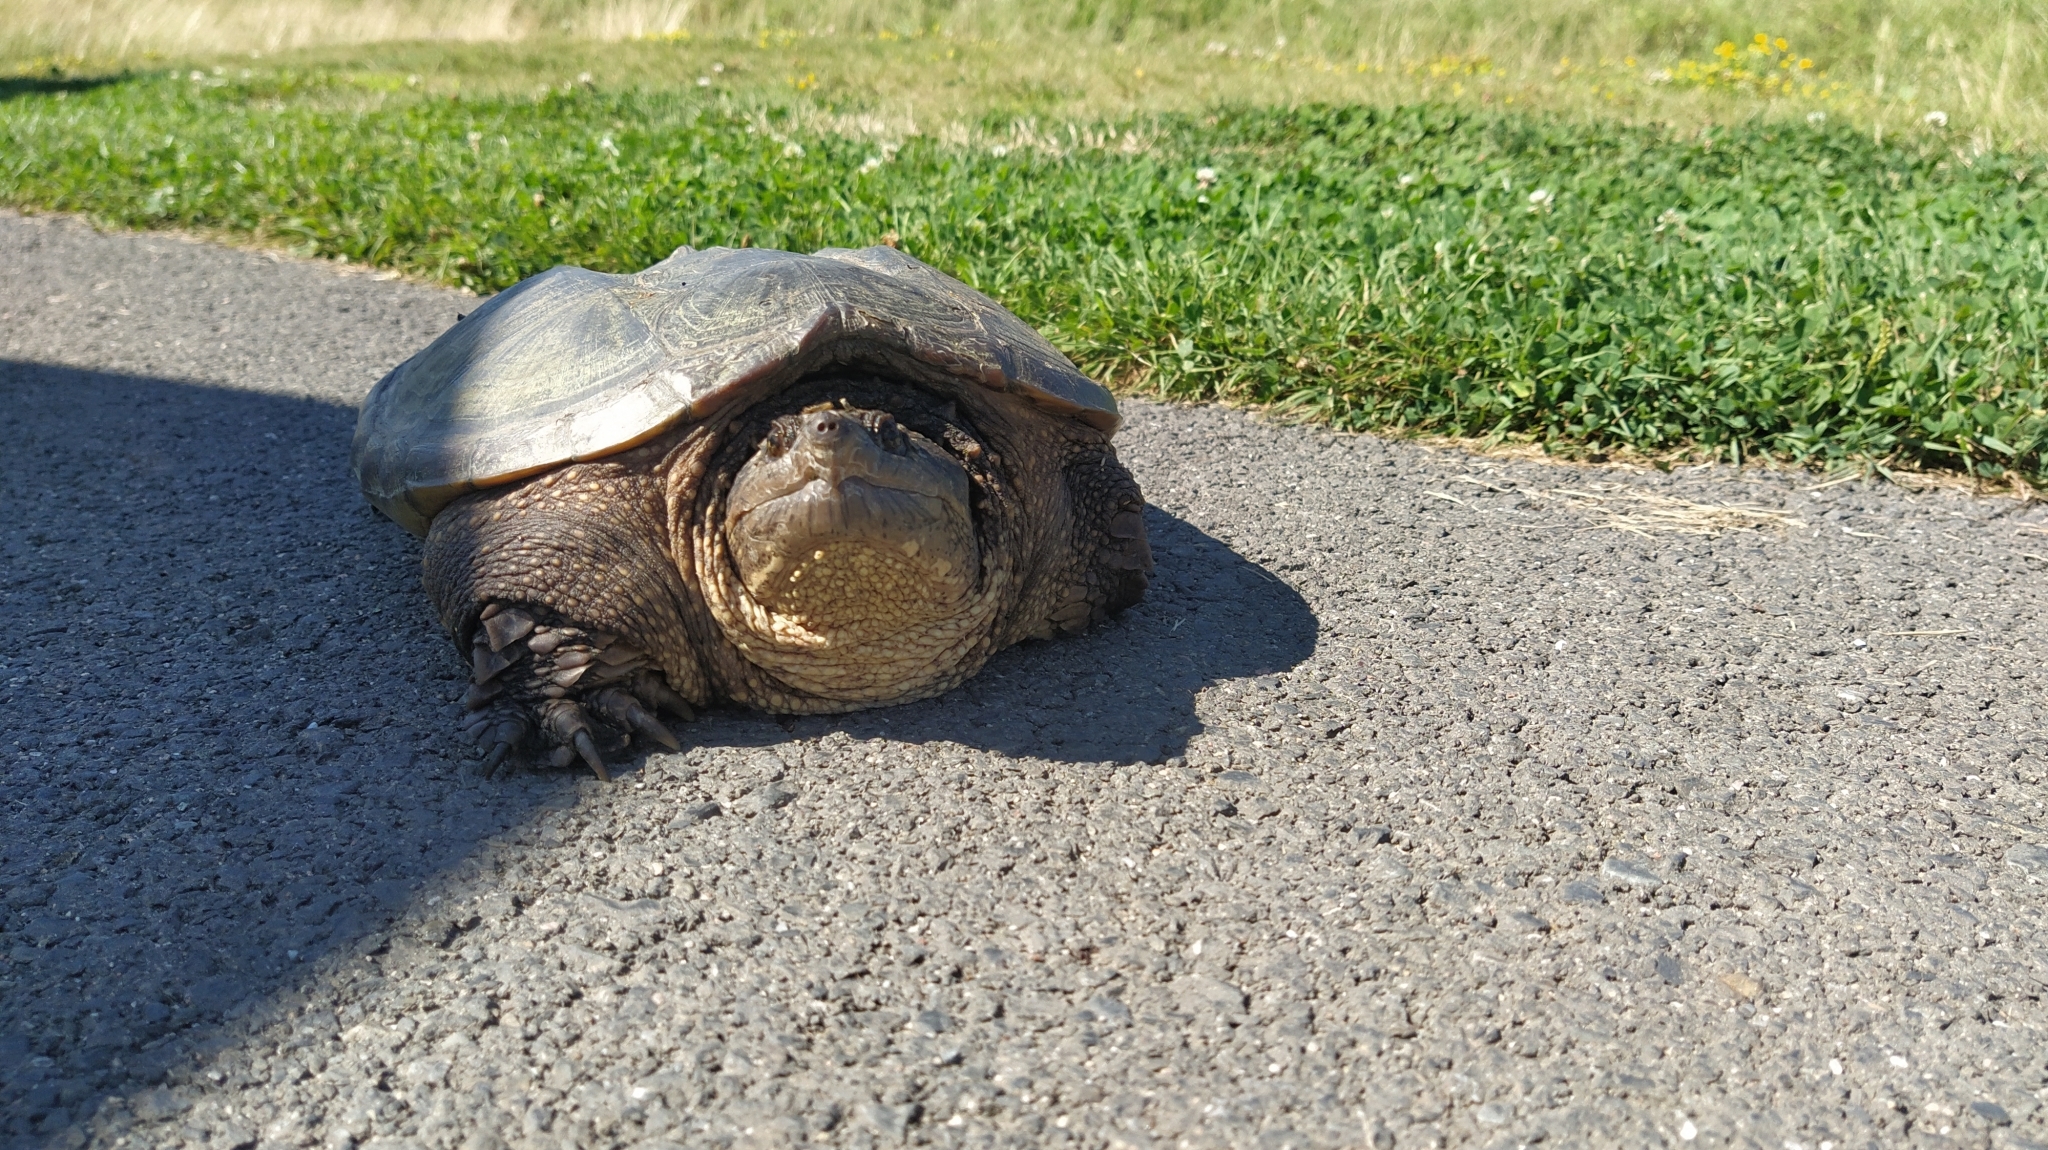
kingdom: Animalia
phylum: Chordata
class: Testudines
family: Chelydridae
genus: Chelydra
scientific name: Chelydra serpentina
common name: Common snapping turtle
